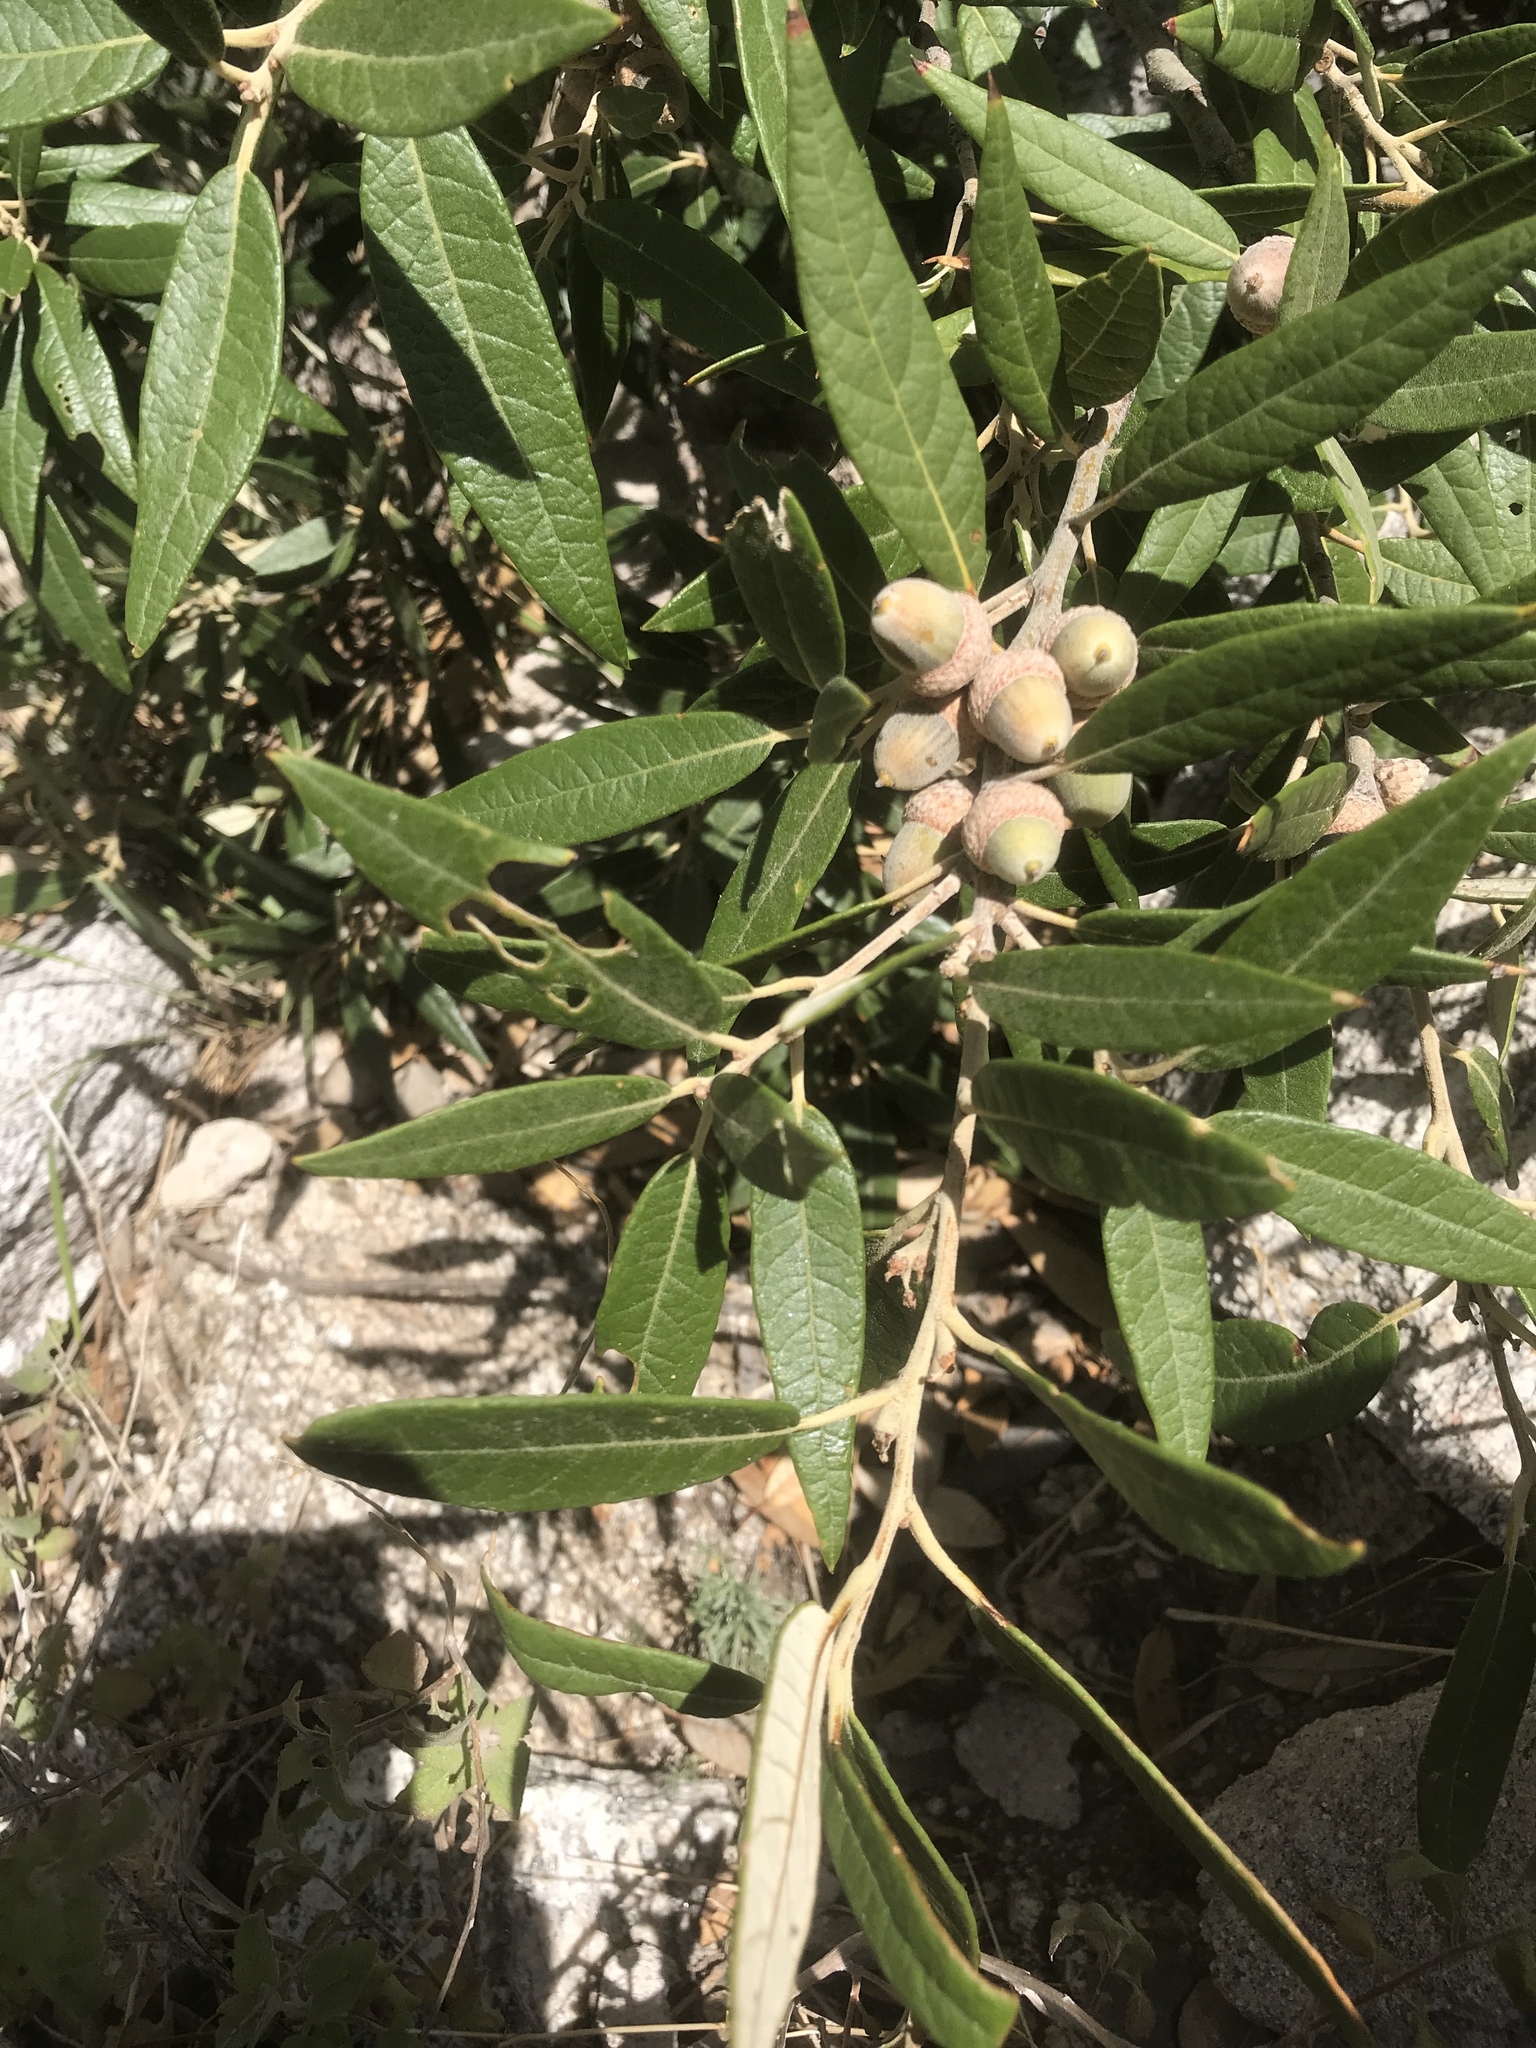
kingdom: Plantae
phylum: Tracheophyta
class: Magnoliopsida
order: Fagales
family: Fagaceae
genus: Quercus
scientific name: Quercus hypoleucoides
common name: Silverleaf oak
